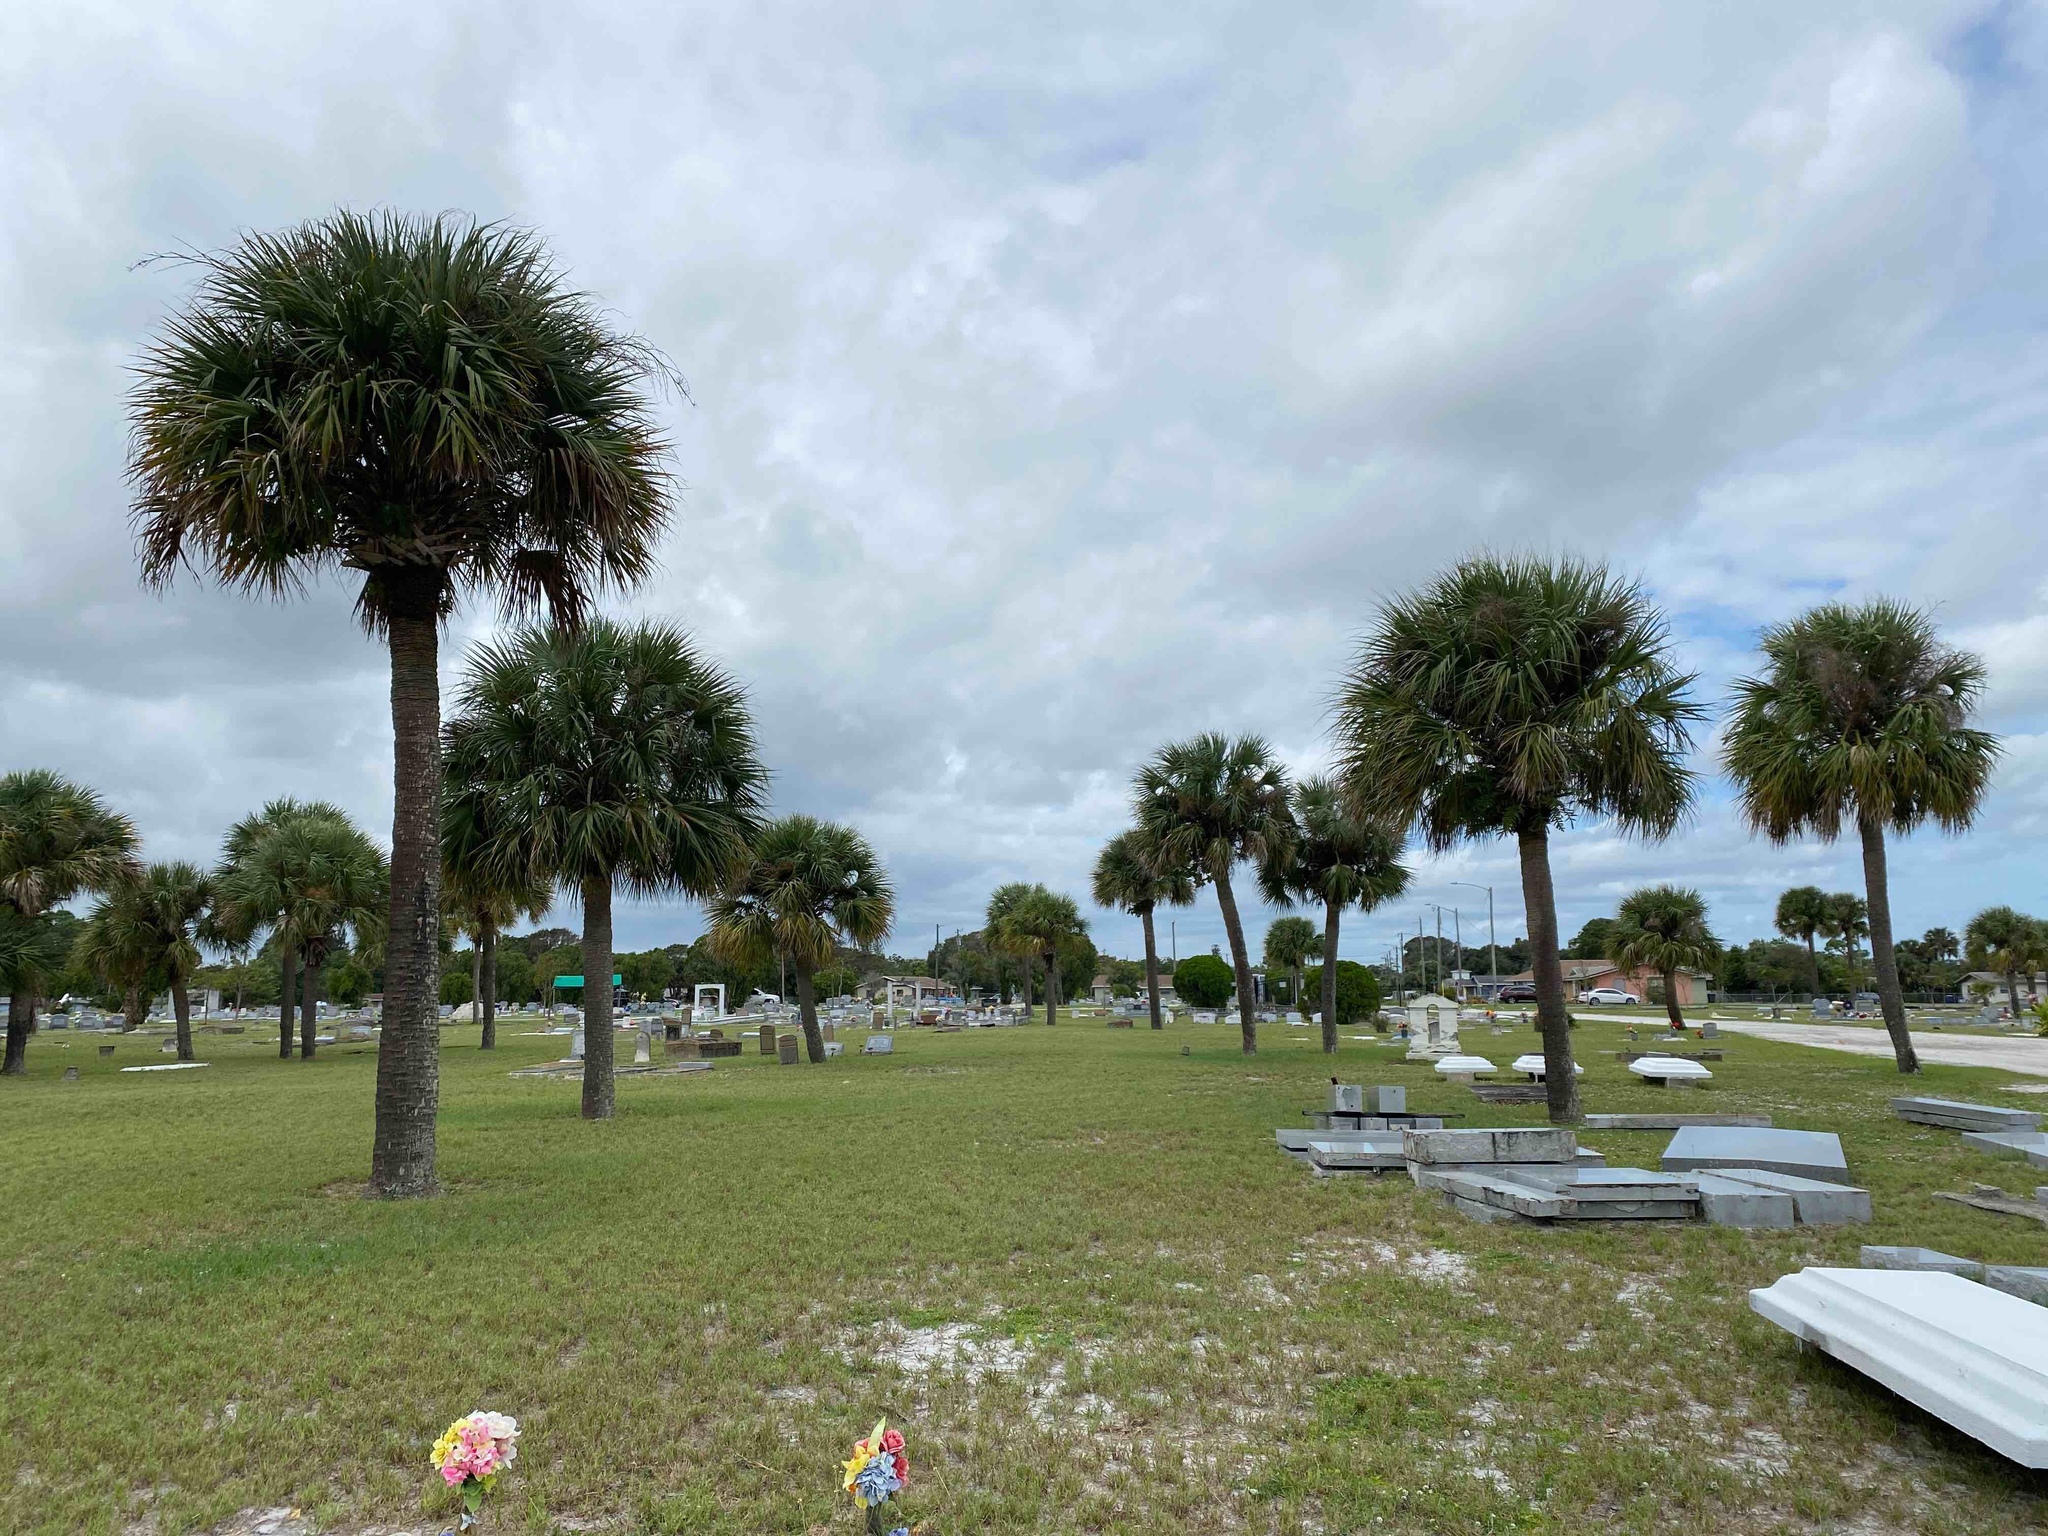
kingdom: Plantae
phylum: Tracheophyta
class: Liliopsida
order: Arecales
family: Arecaceae
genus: Sabal
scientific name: Sabal palmetto
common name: Blue palmetto
